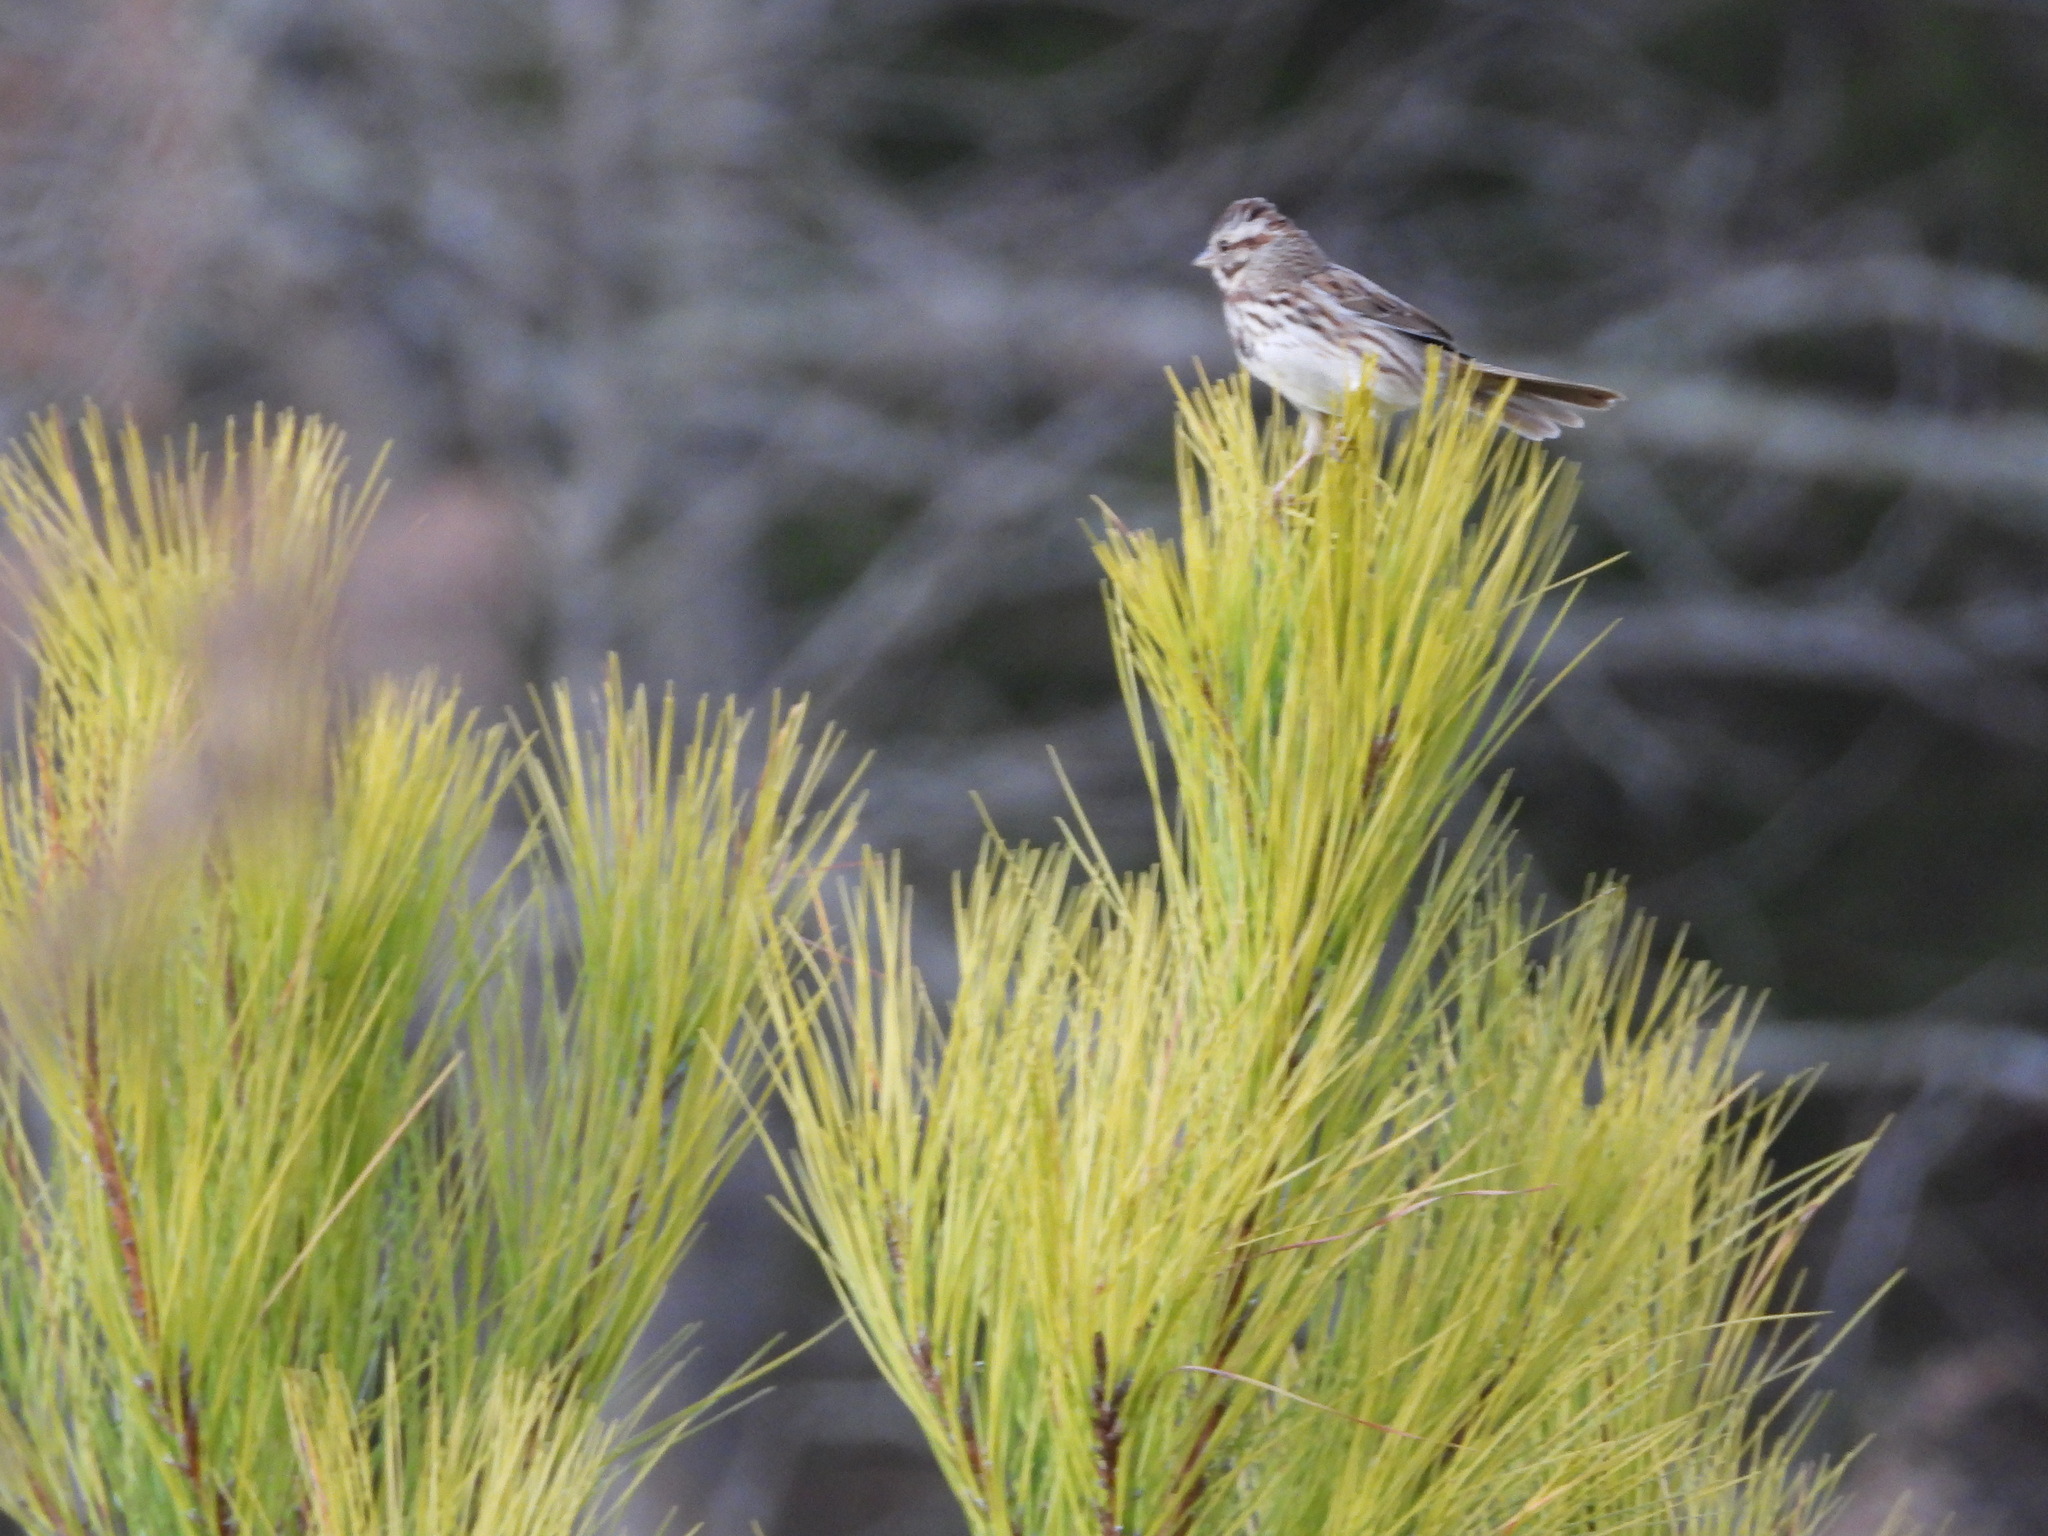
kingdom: Animalia
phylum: Chordata
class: Aves
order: Passeriformes
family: Passerellidae
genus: Melospiza
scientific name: Melospiza melodia
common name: Song sparrow
